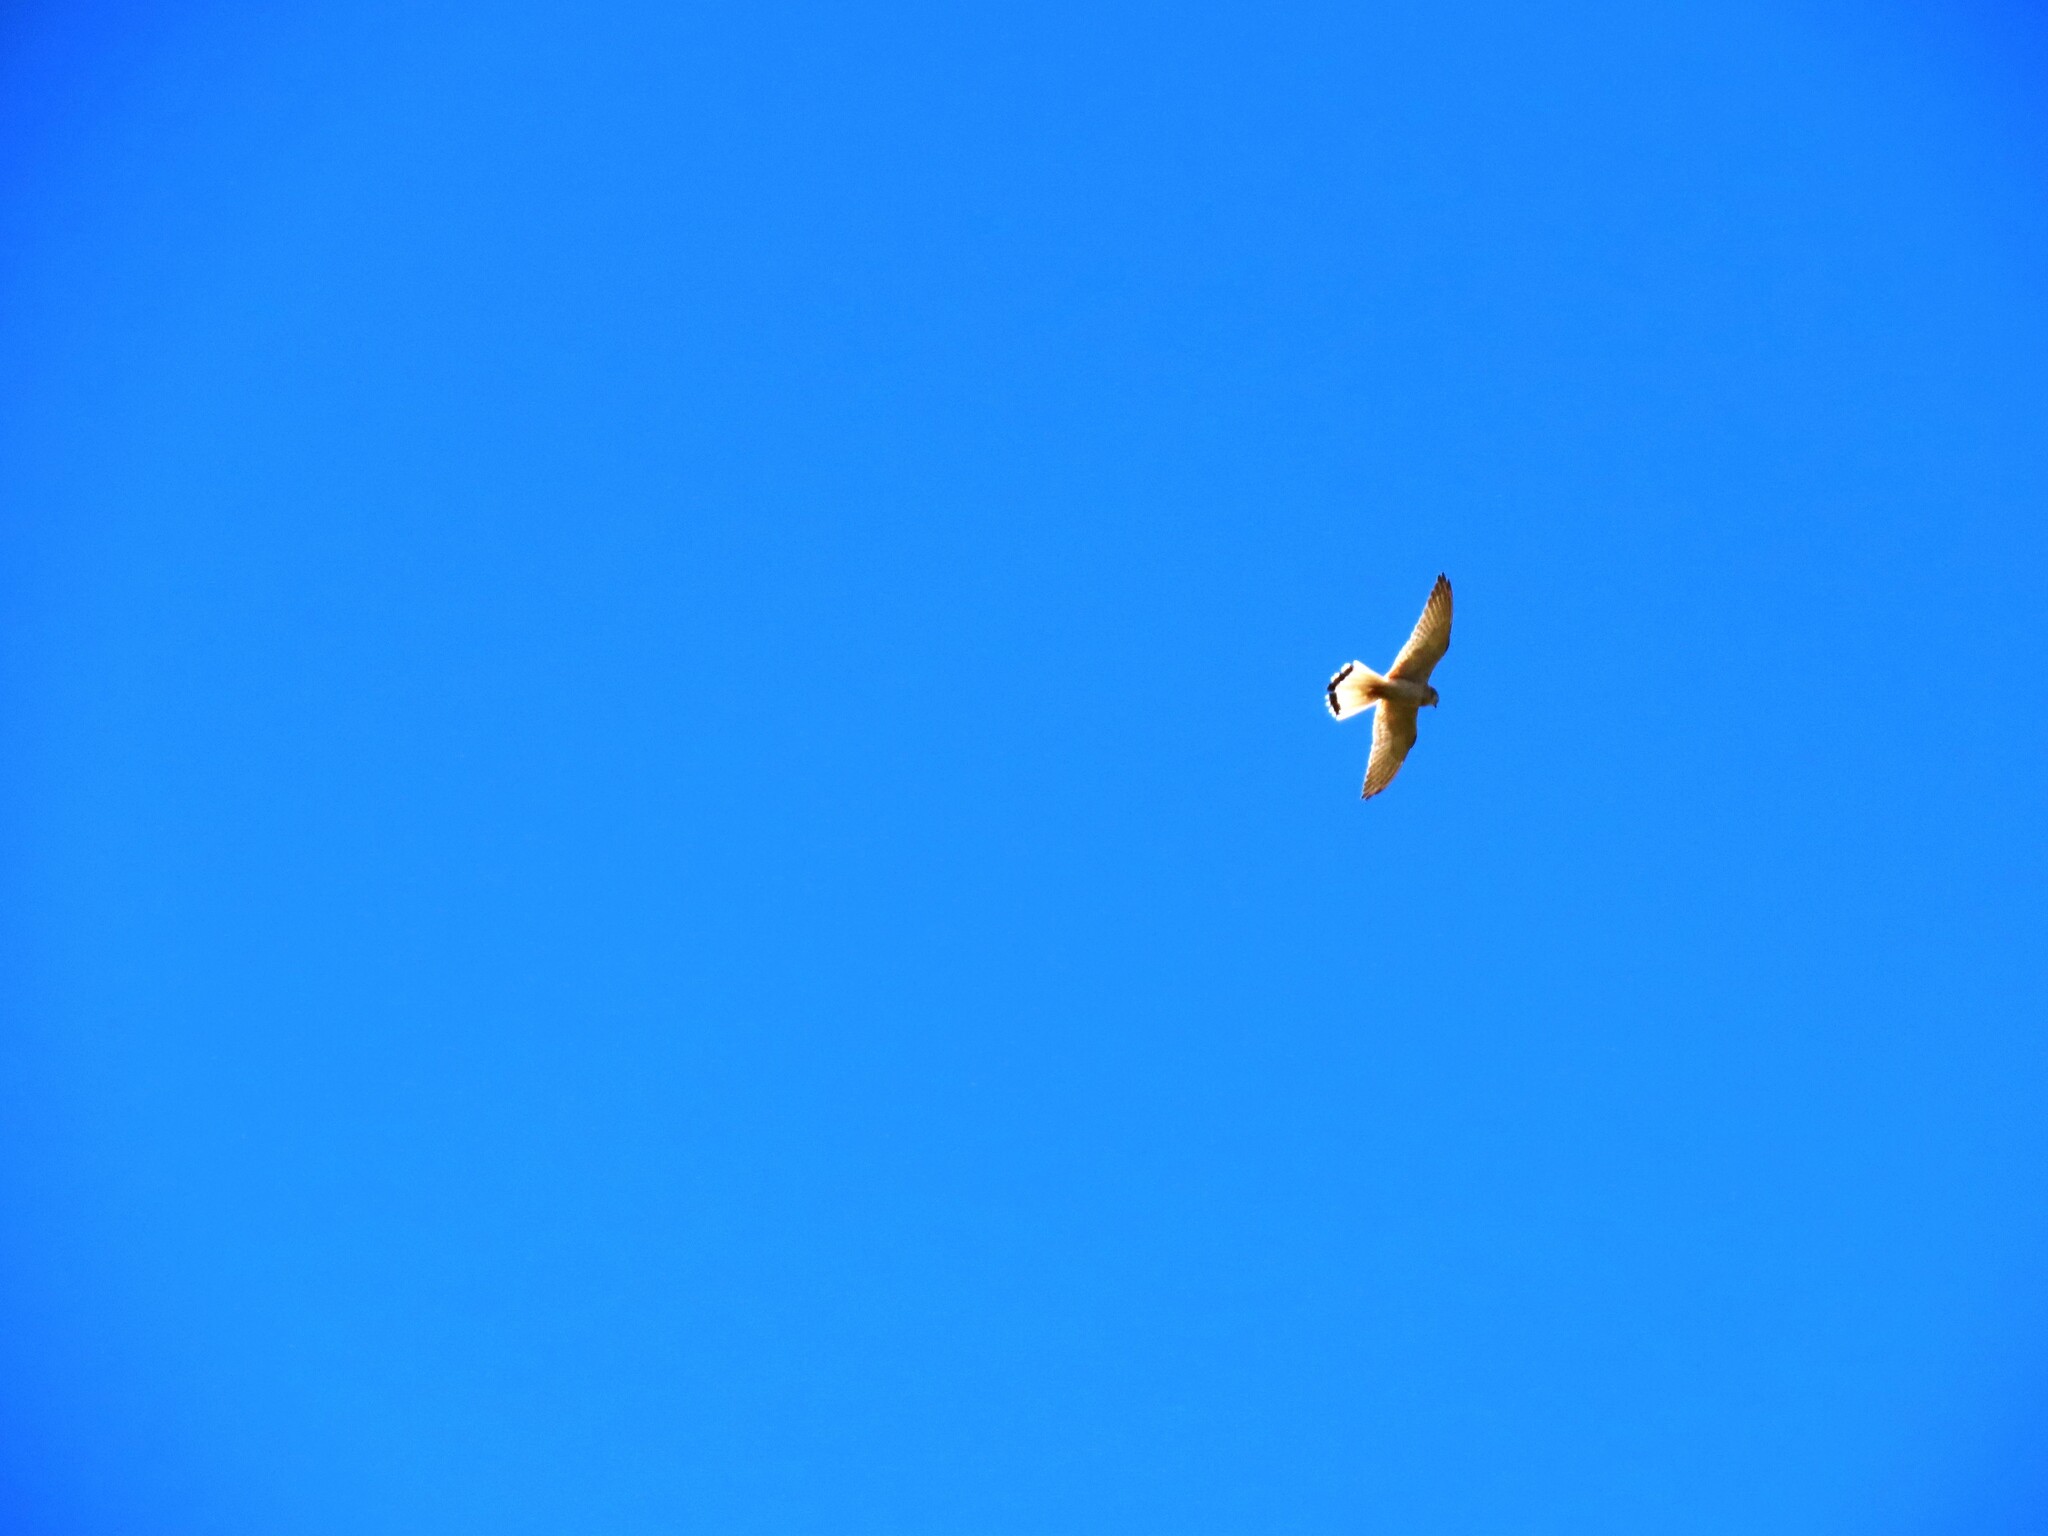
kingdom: Animalia
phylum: Chordata
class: Aves
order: Falconiformes
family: Falconidae
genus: Falco
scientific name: Falco cenchroides
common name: Nankeen kestrel
